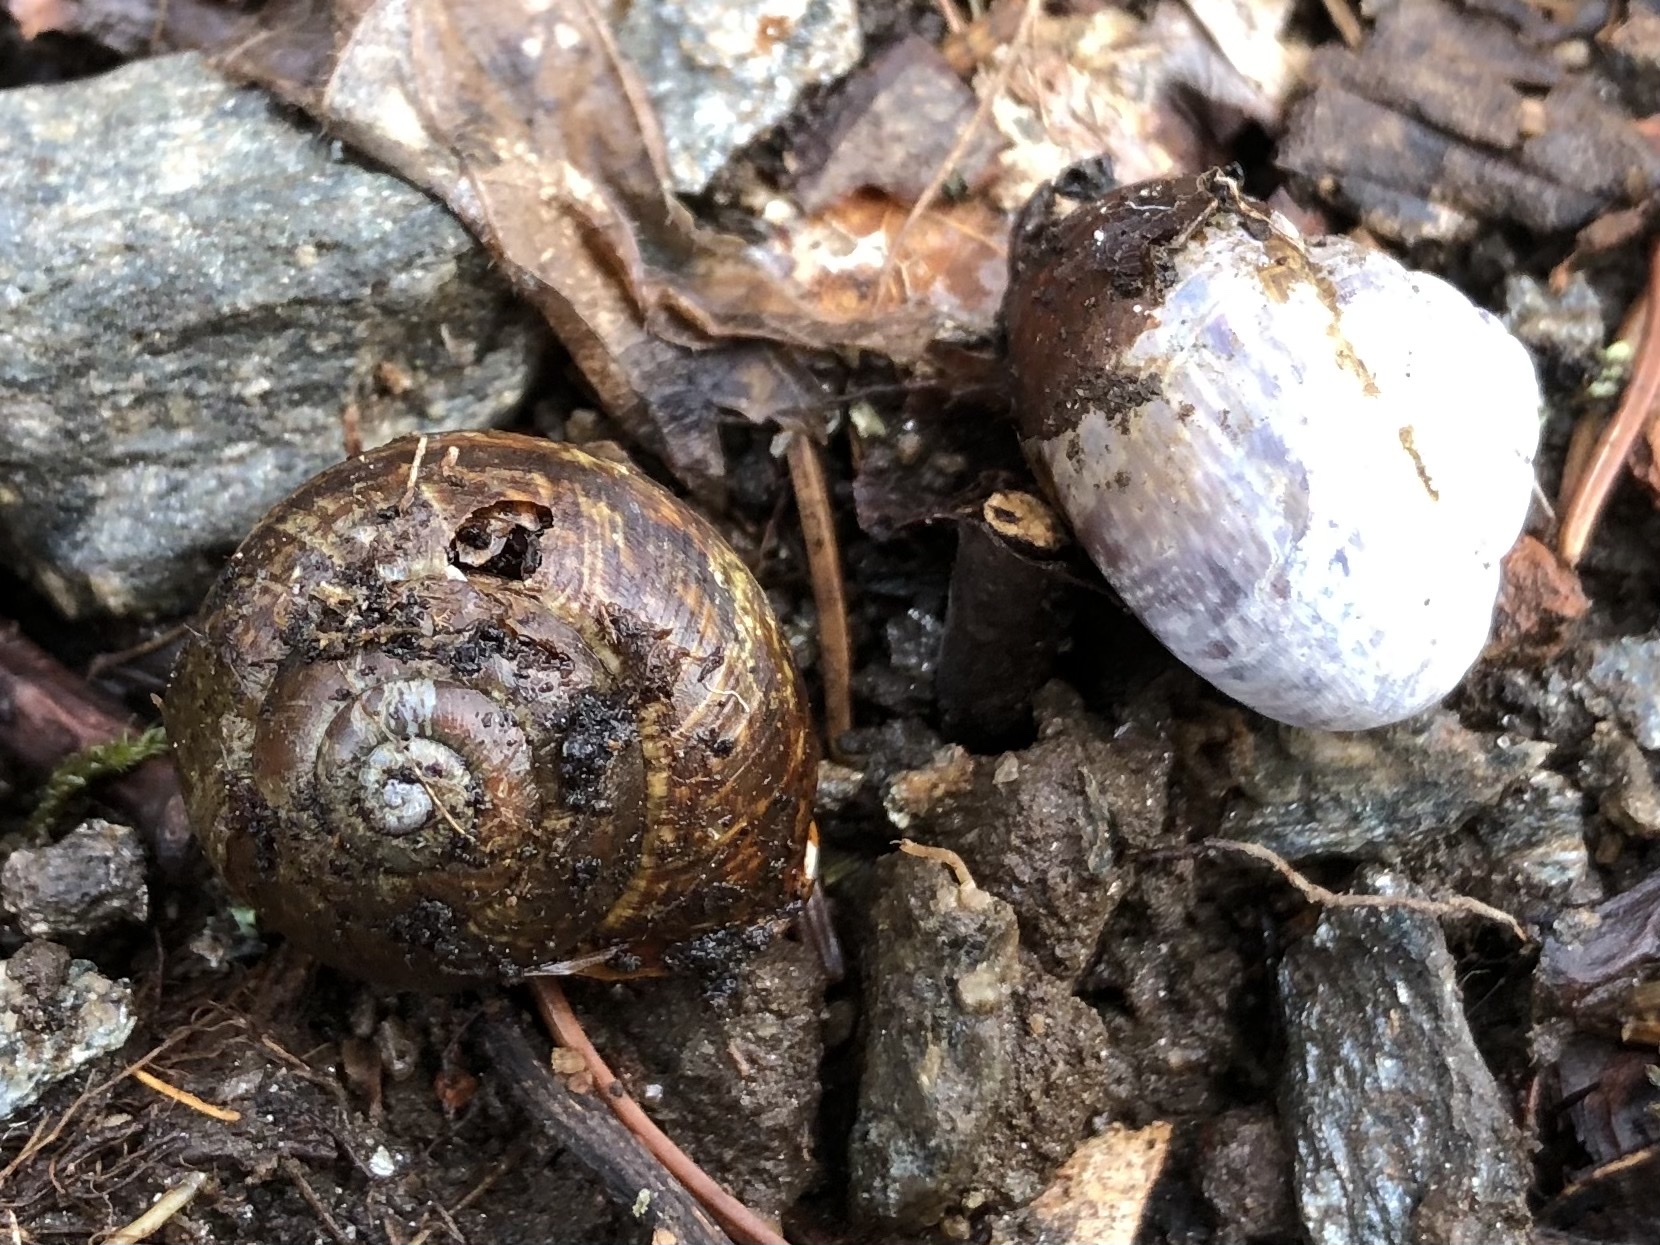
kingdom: Animalia
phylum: Mollusca
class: Gastropoda
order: Stylommatophora
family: Helicidae
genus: Arianta
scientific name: Arianta arbustorum
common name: Copse snail
